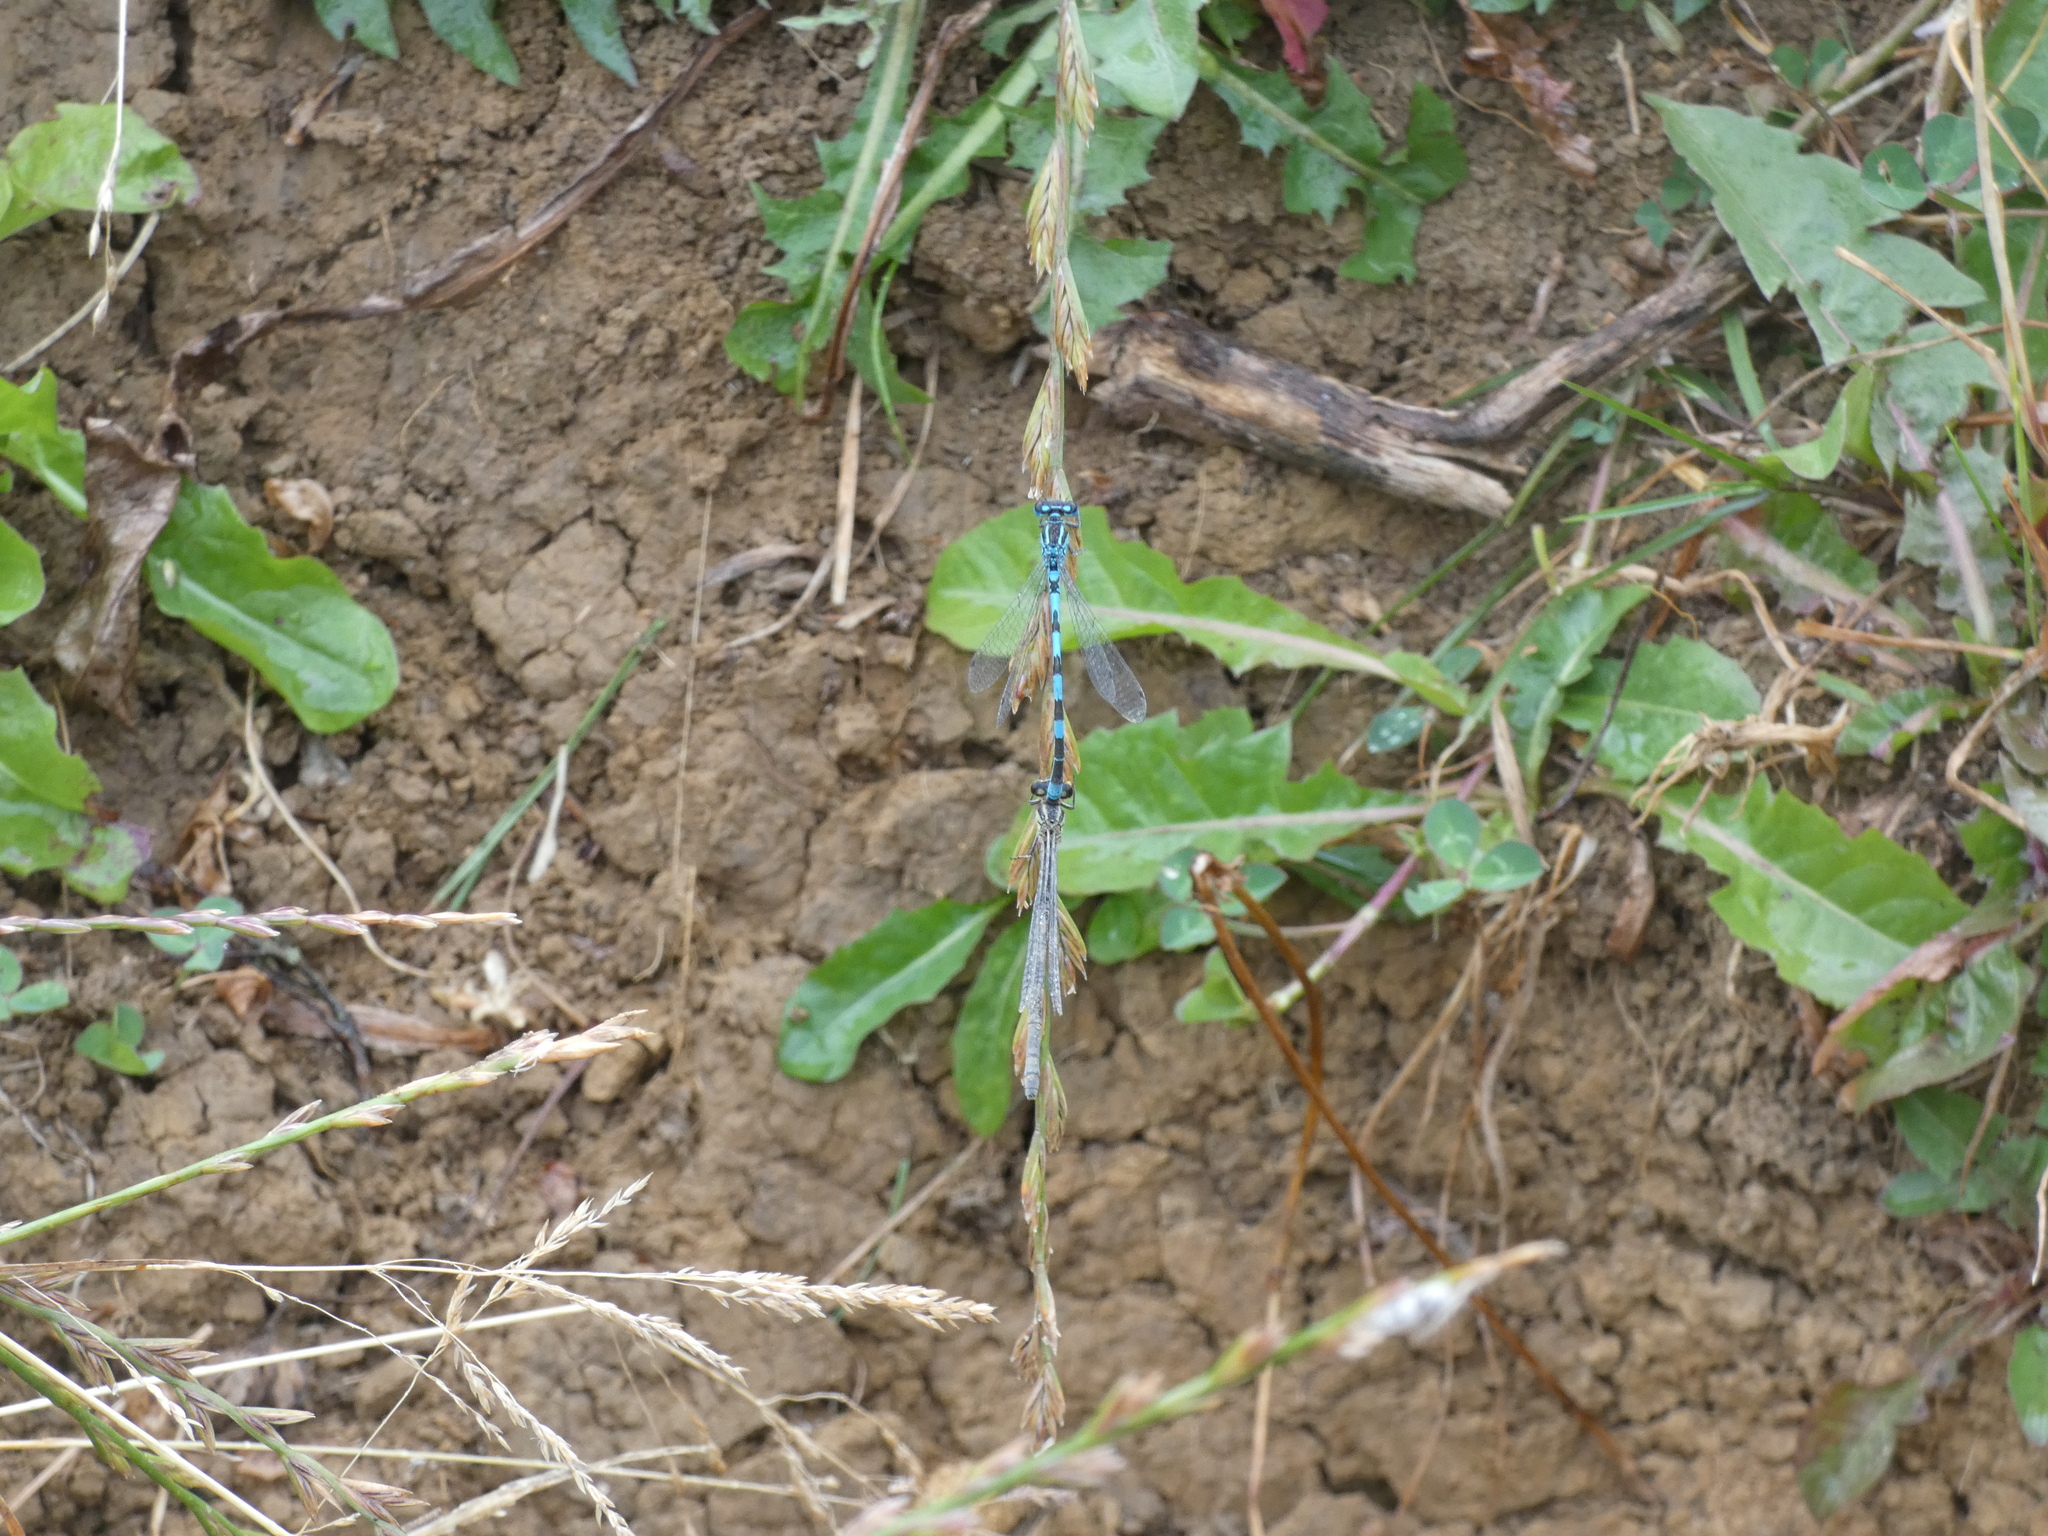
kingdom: Animalia
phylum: Arthropoda
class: Insecta
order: Odonata
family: Coenagrionidae
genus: Coenagrion
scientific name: Coenagrion mercuriale
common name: Southern damselfly
